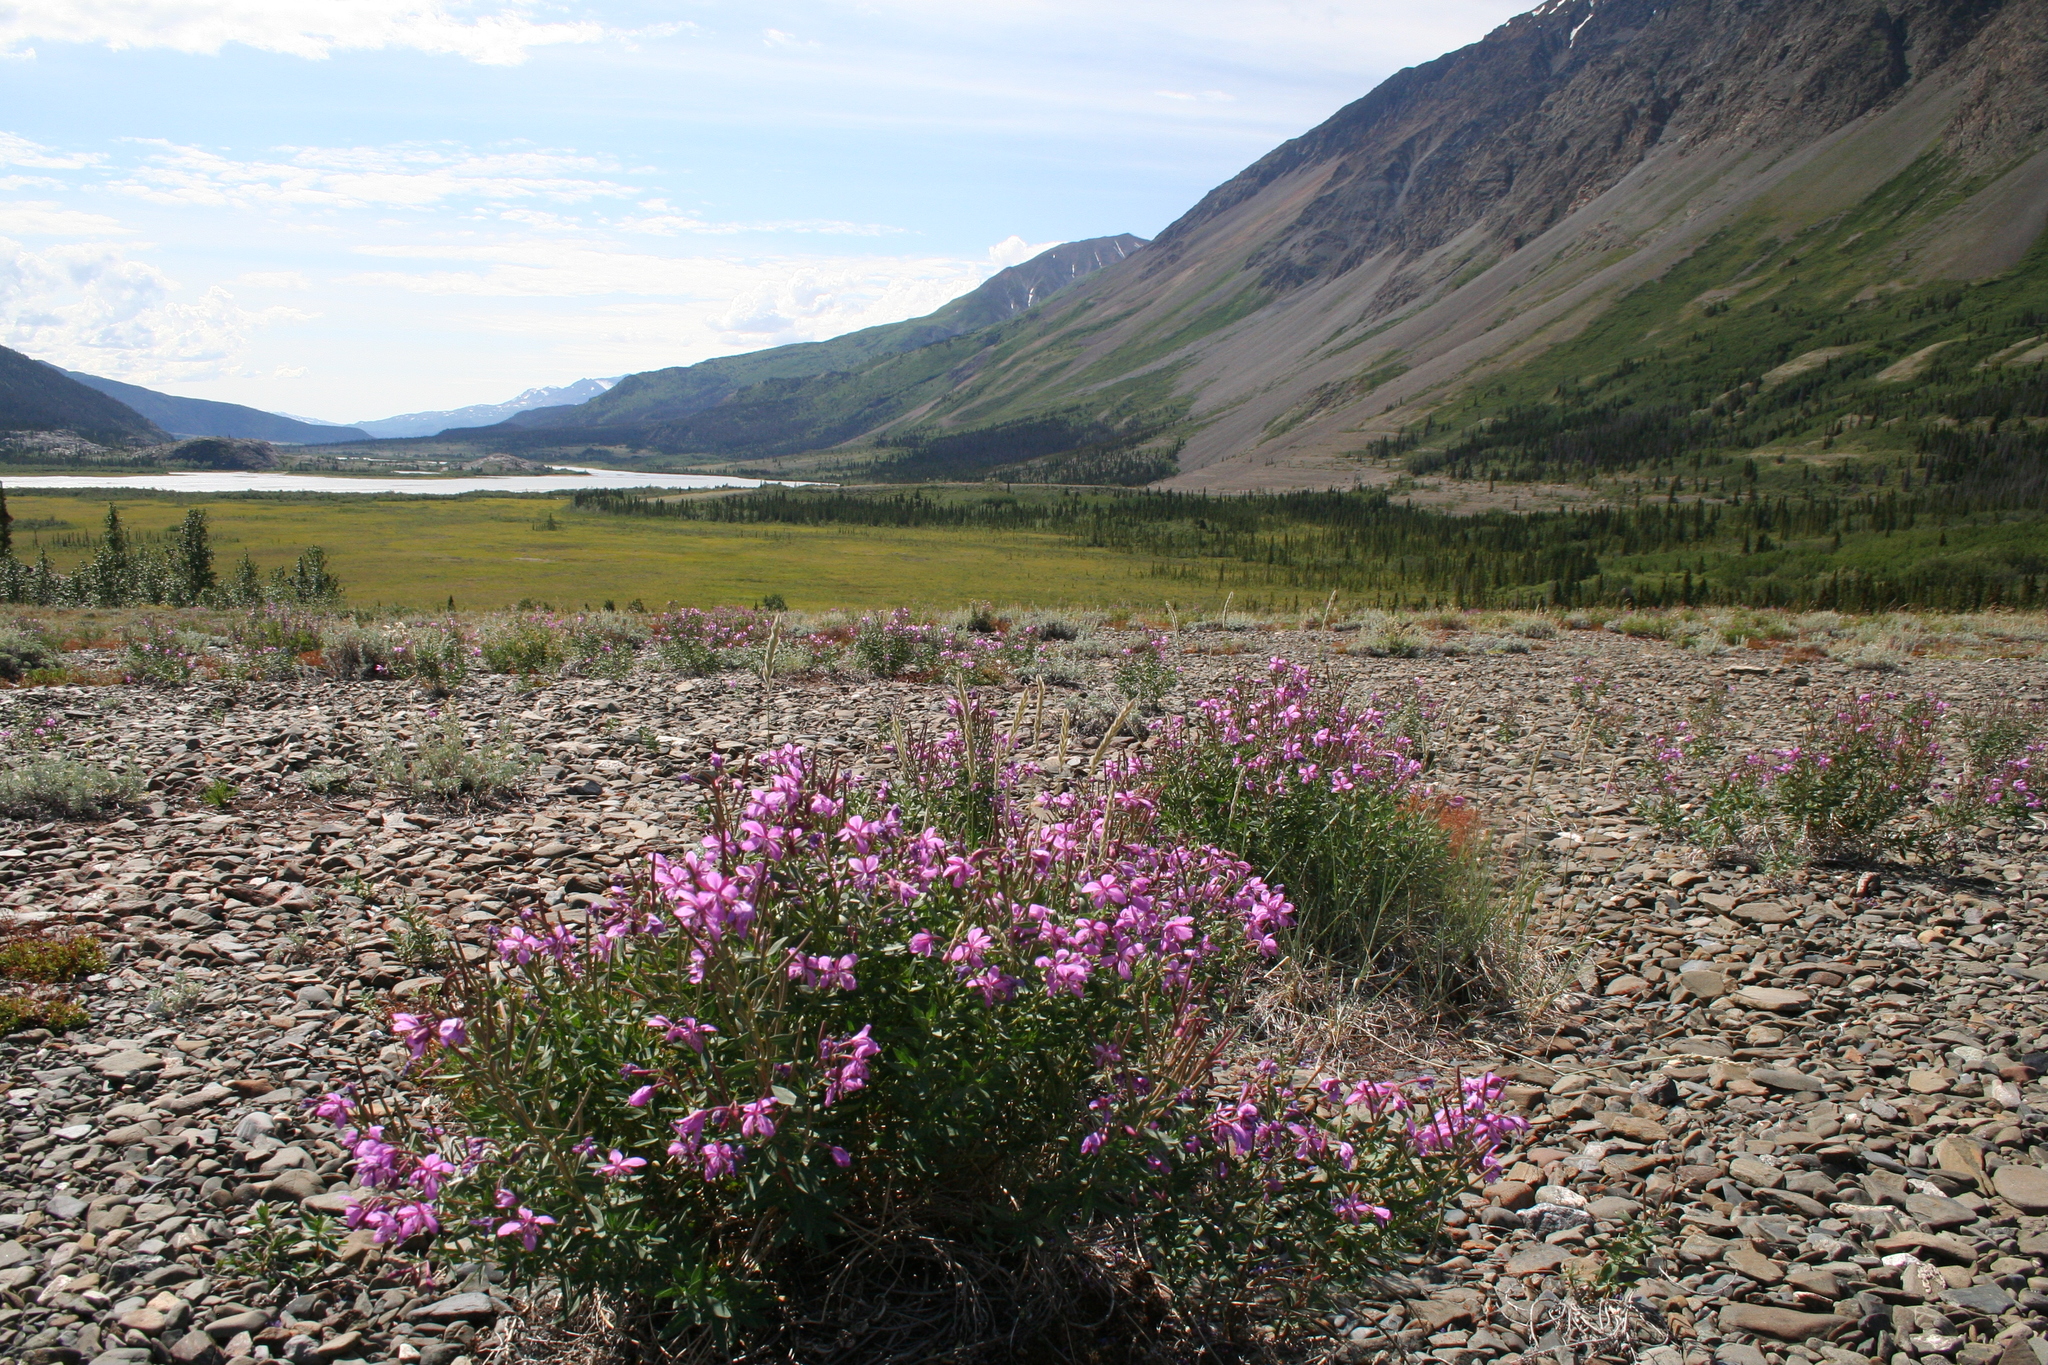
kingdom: Plantae
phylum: Tracheophyta
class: Magnoliopsida
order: Myrtales
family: Onagraceae
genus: Chamaenerion
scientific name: Chamaenerion latifolium
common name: Dwarf fireweed
